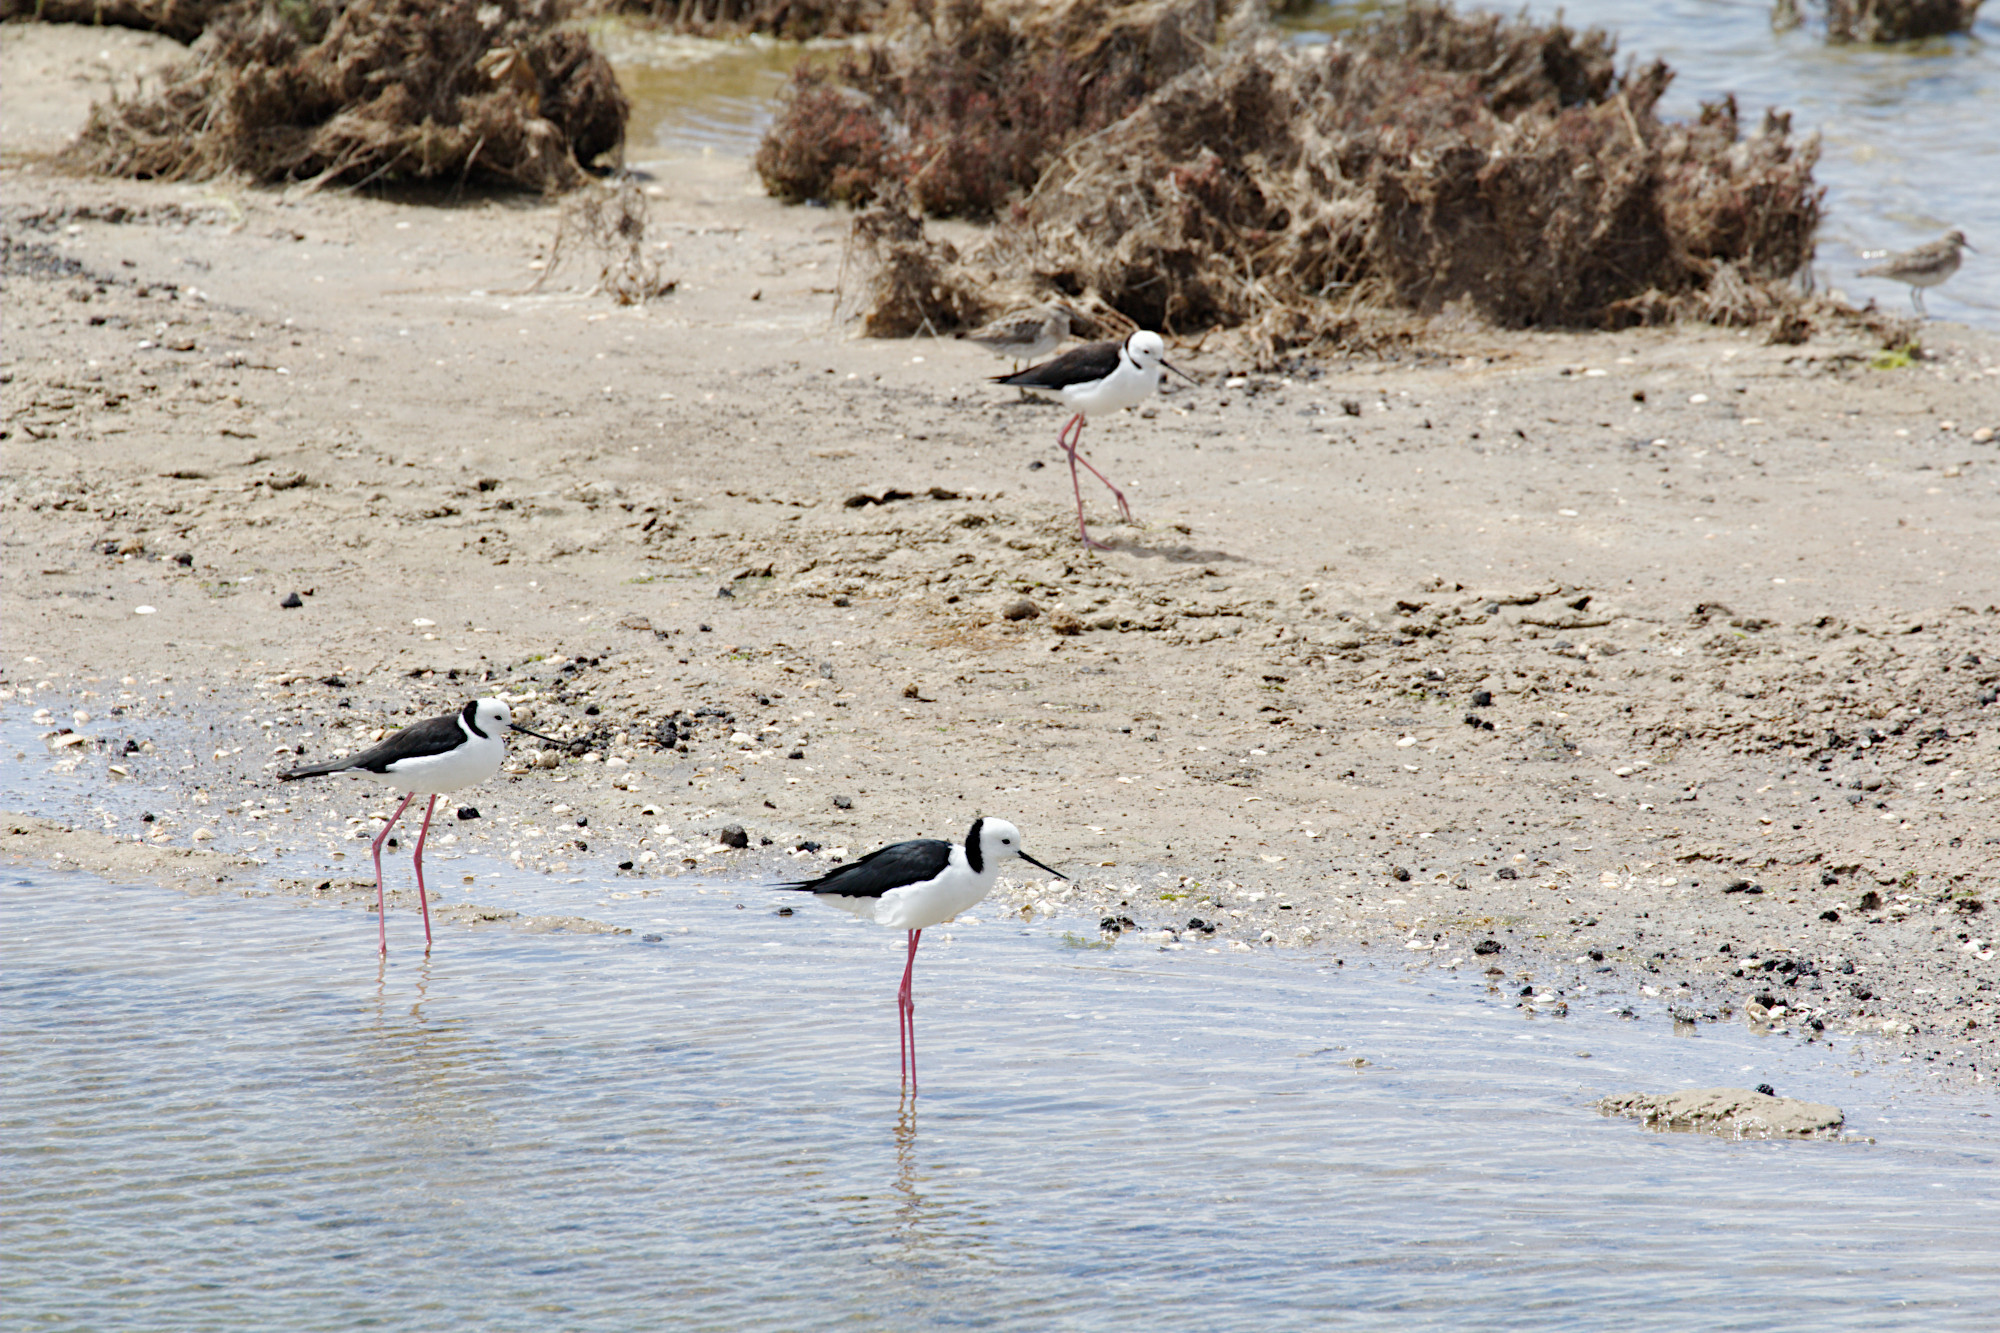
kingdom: Animalia
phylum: Chordata
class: Aves
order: Charadriiformes
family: Recurvirostridae
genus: Himantopus
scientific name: Himantopus leucocephalus
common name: White-headed stilt
